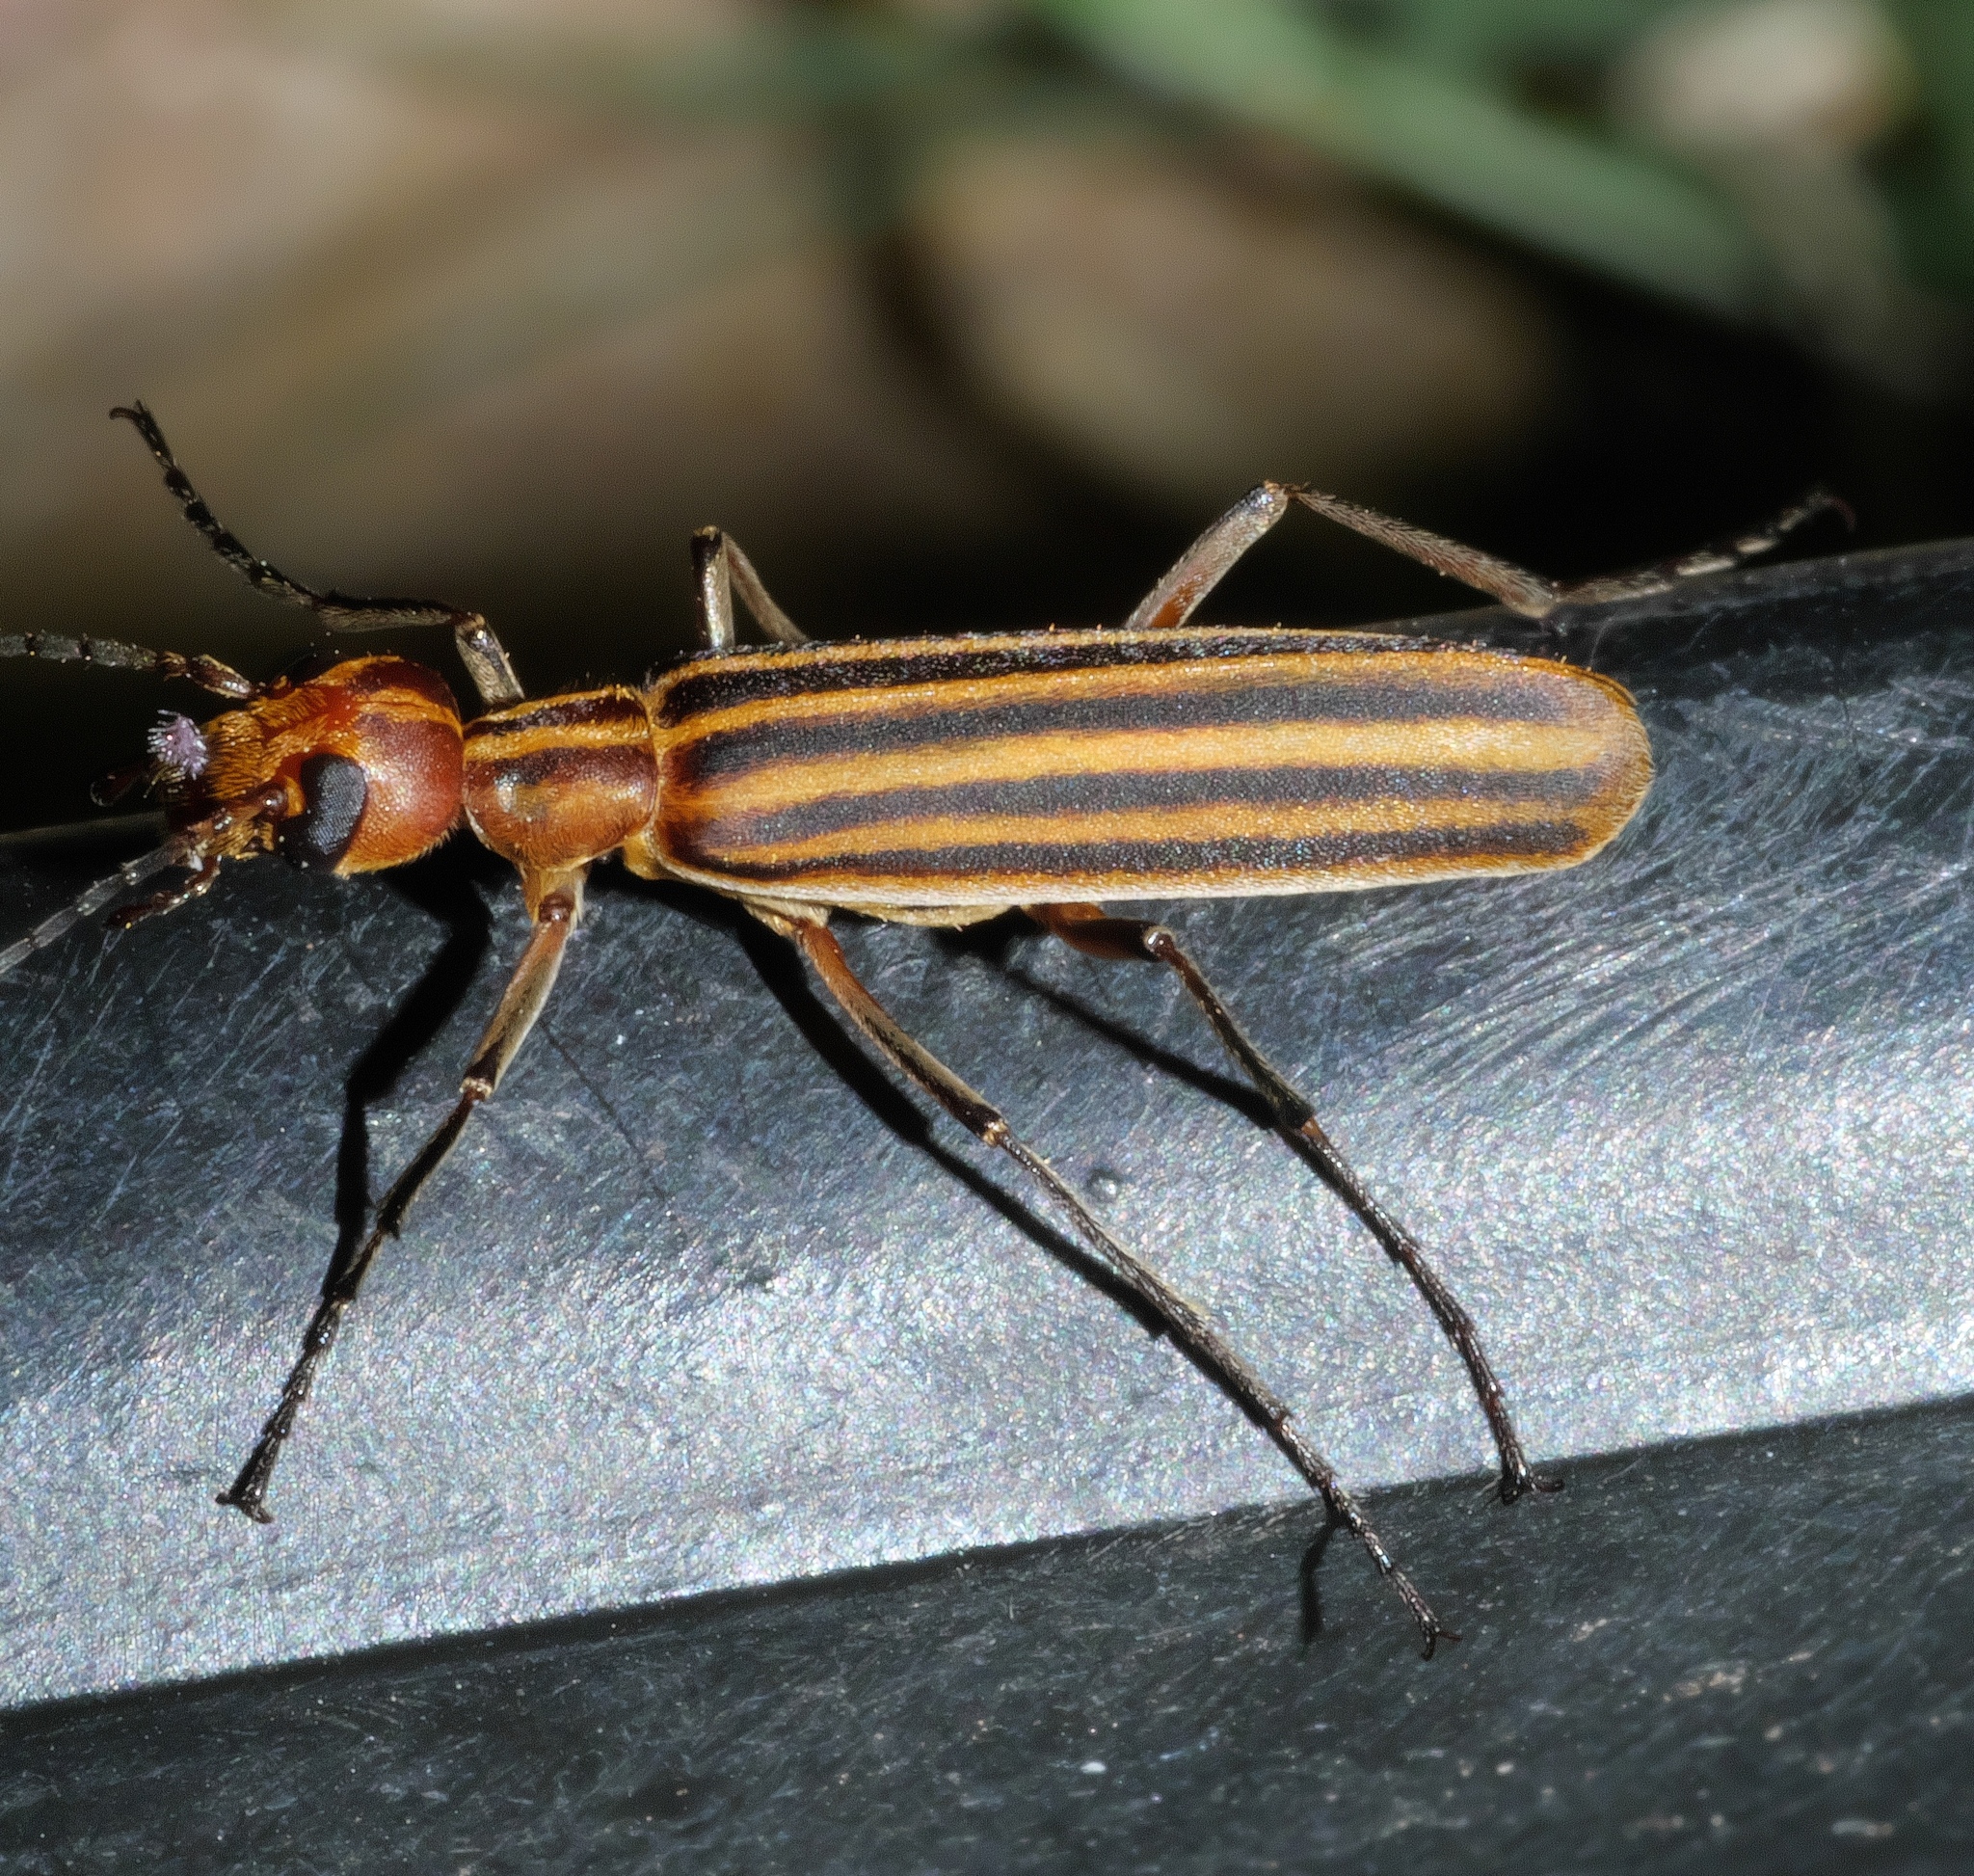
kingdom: Animalia
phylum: Arthropoda
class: Insecta
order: Coleoptera
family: Meloidae
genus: Epicauta
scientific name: Epicauta occidentalis
